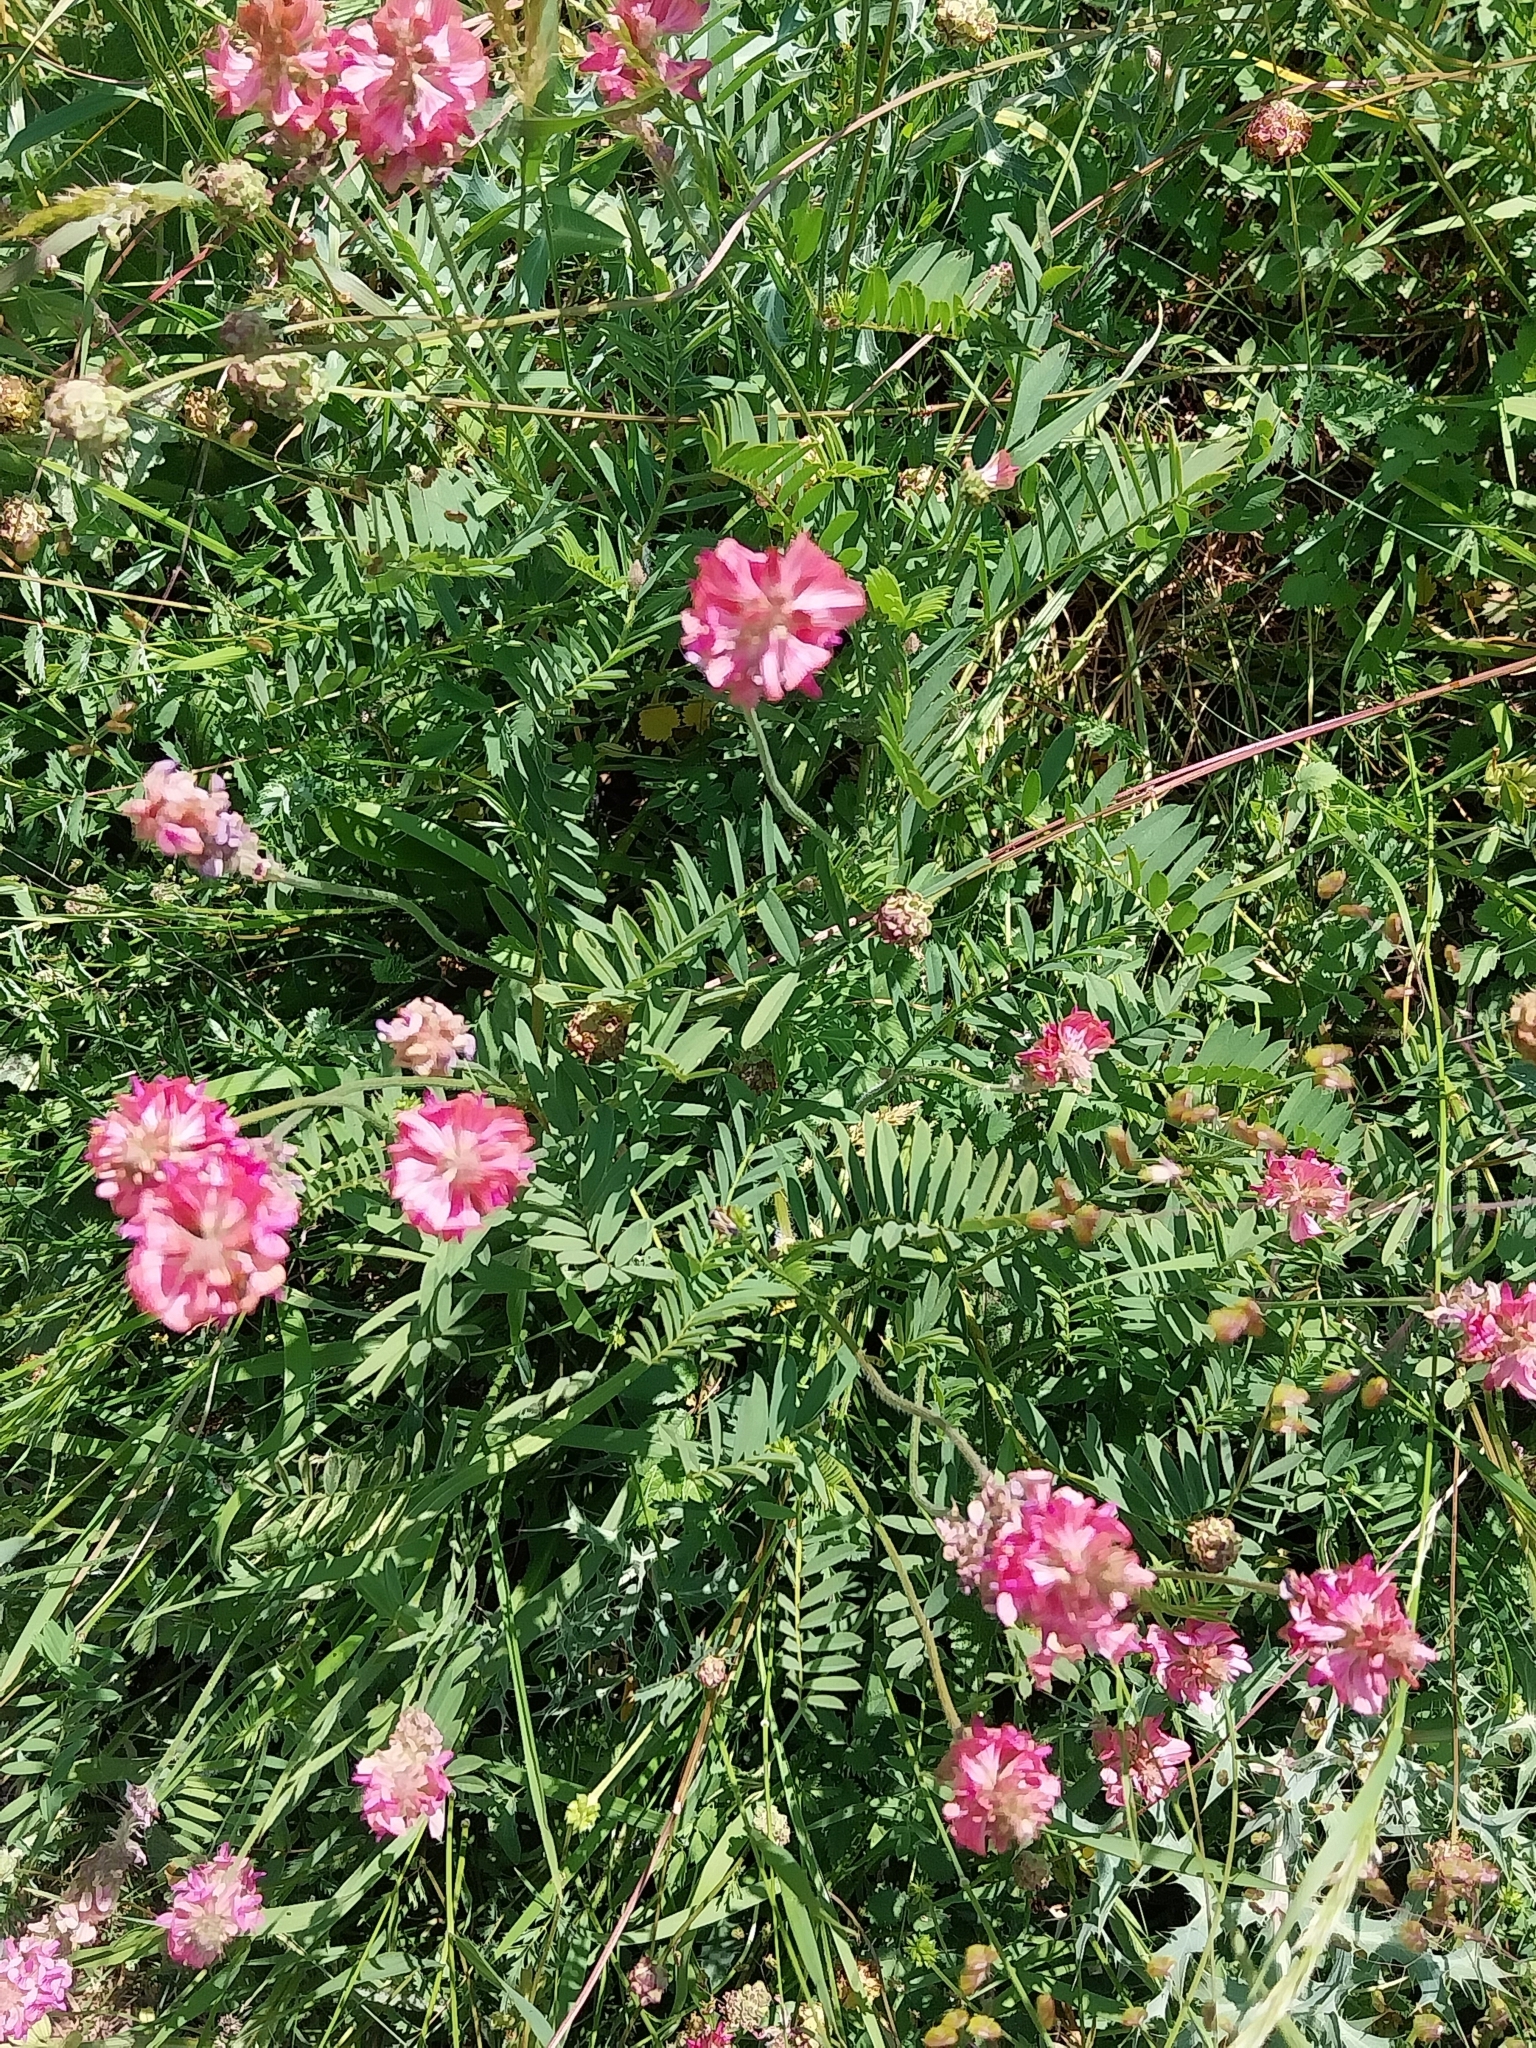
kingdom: Plantae
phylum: Tracheophyta
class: Magnoliopsida
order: Fabales
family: Fabaceae
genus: Onobrychis
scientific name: Onobrychis viciifolia
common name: Sainfoin
